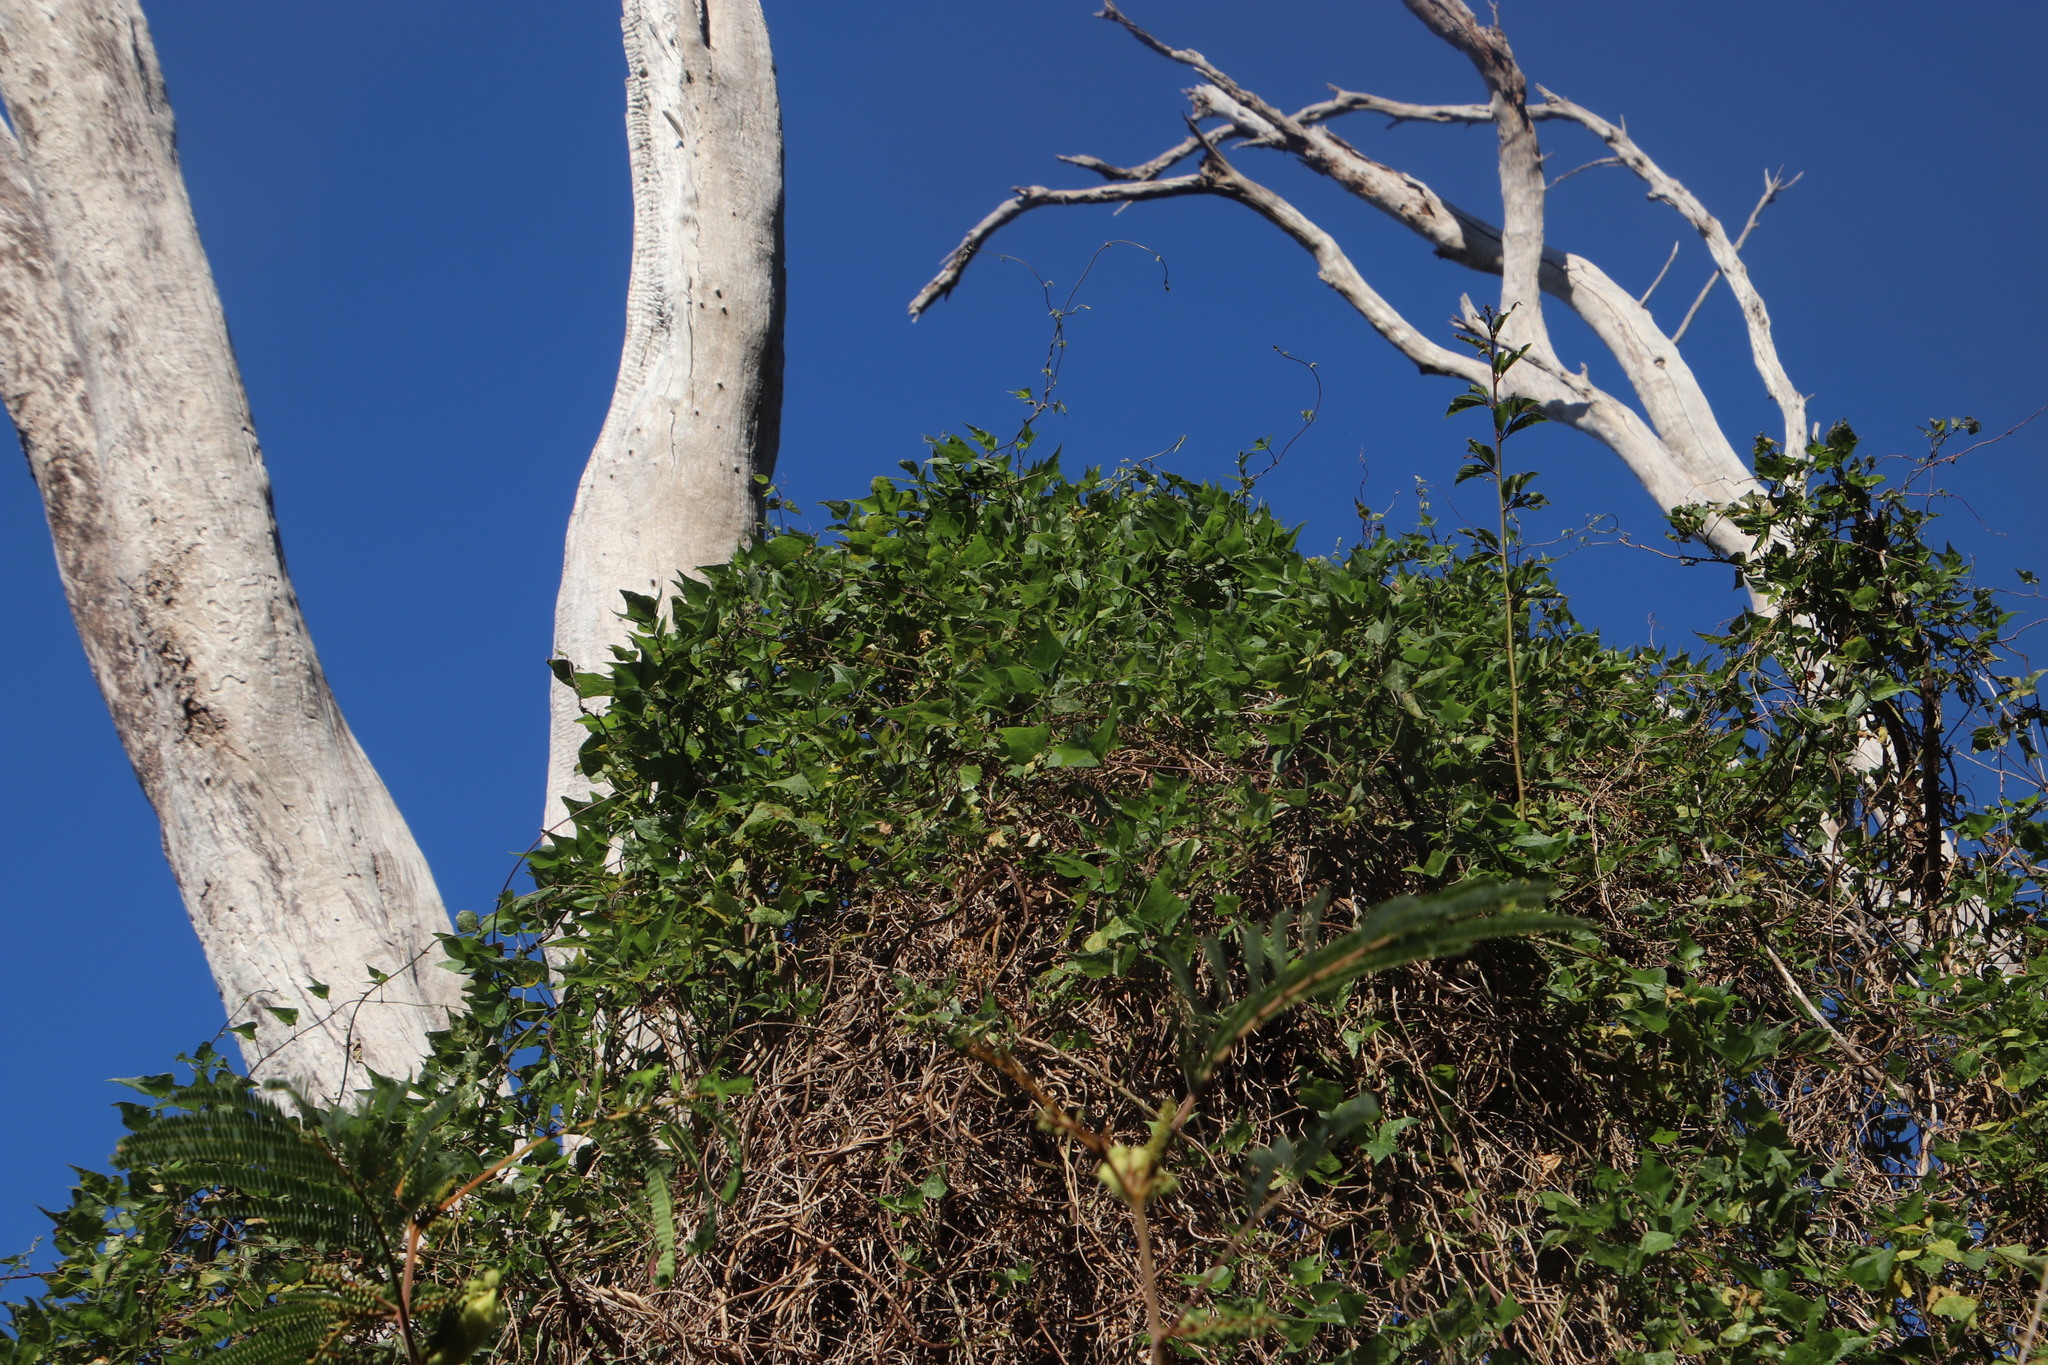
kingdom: Plantae
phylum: Tracheophyta
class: Magnoliopsida
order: Fabales
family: Fabaceae
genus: Dipogon
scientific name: Dipogon lignosus
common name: Okie bean
